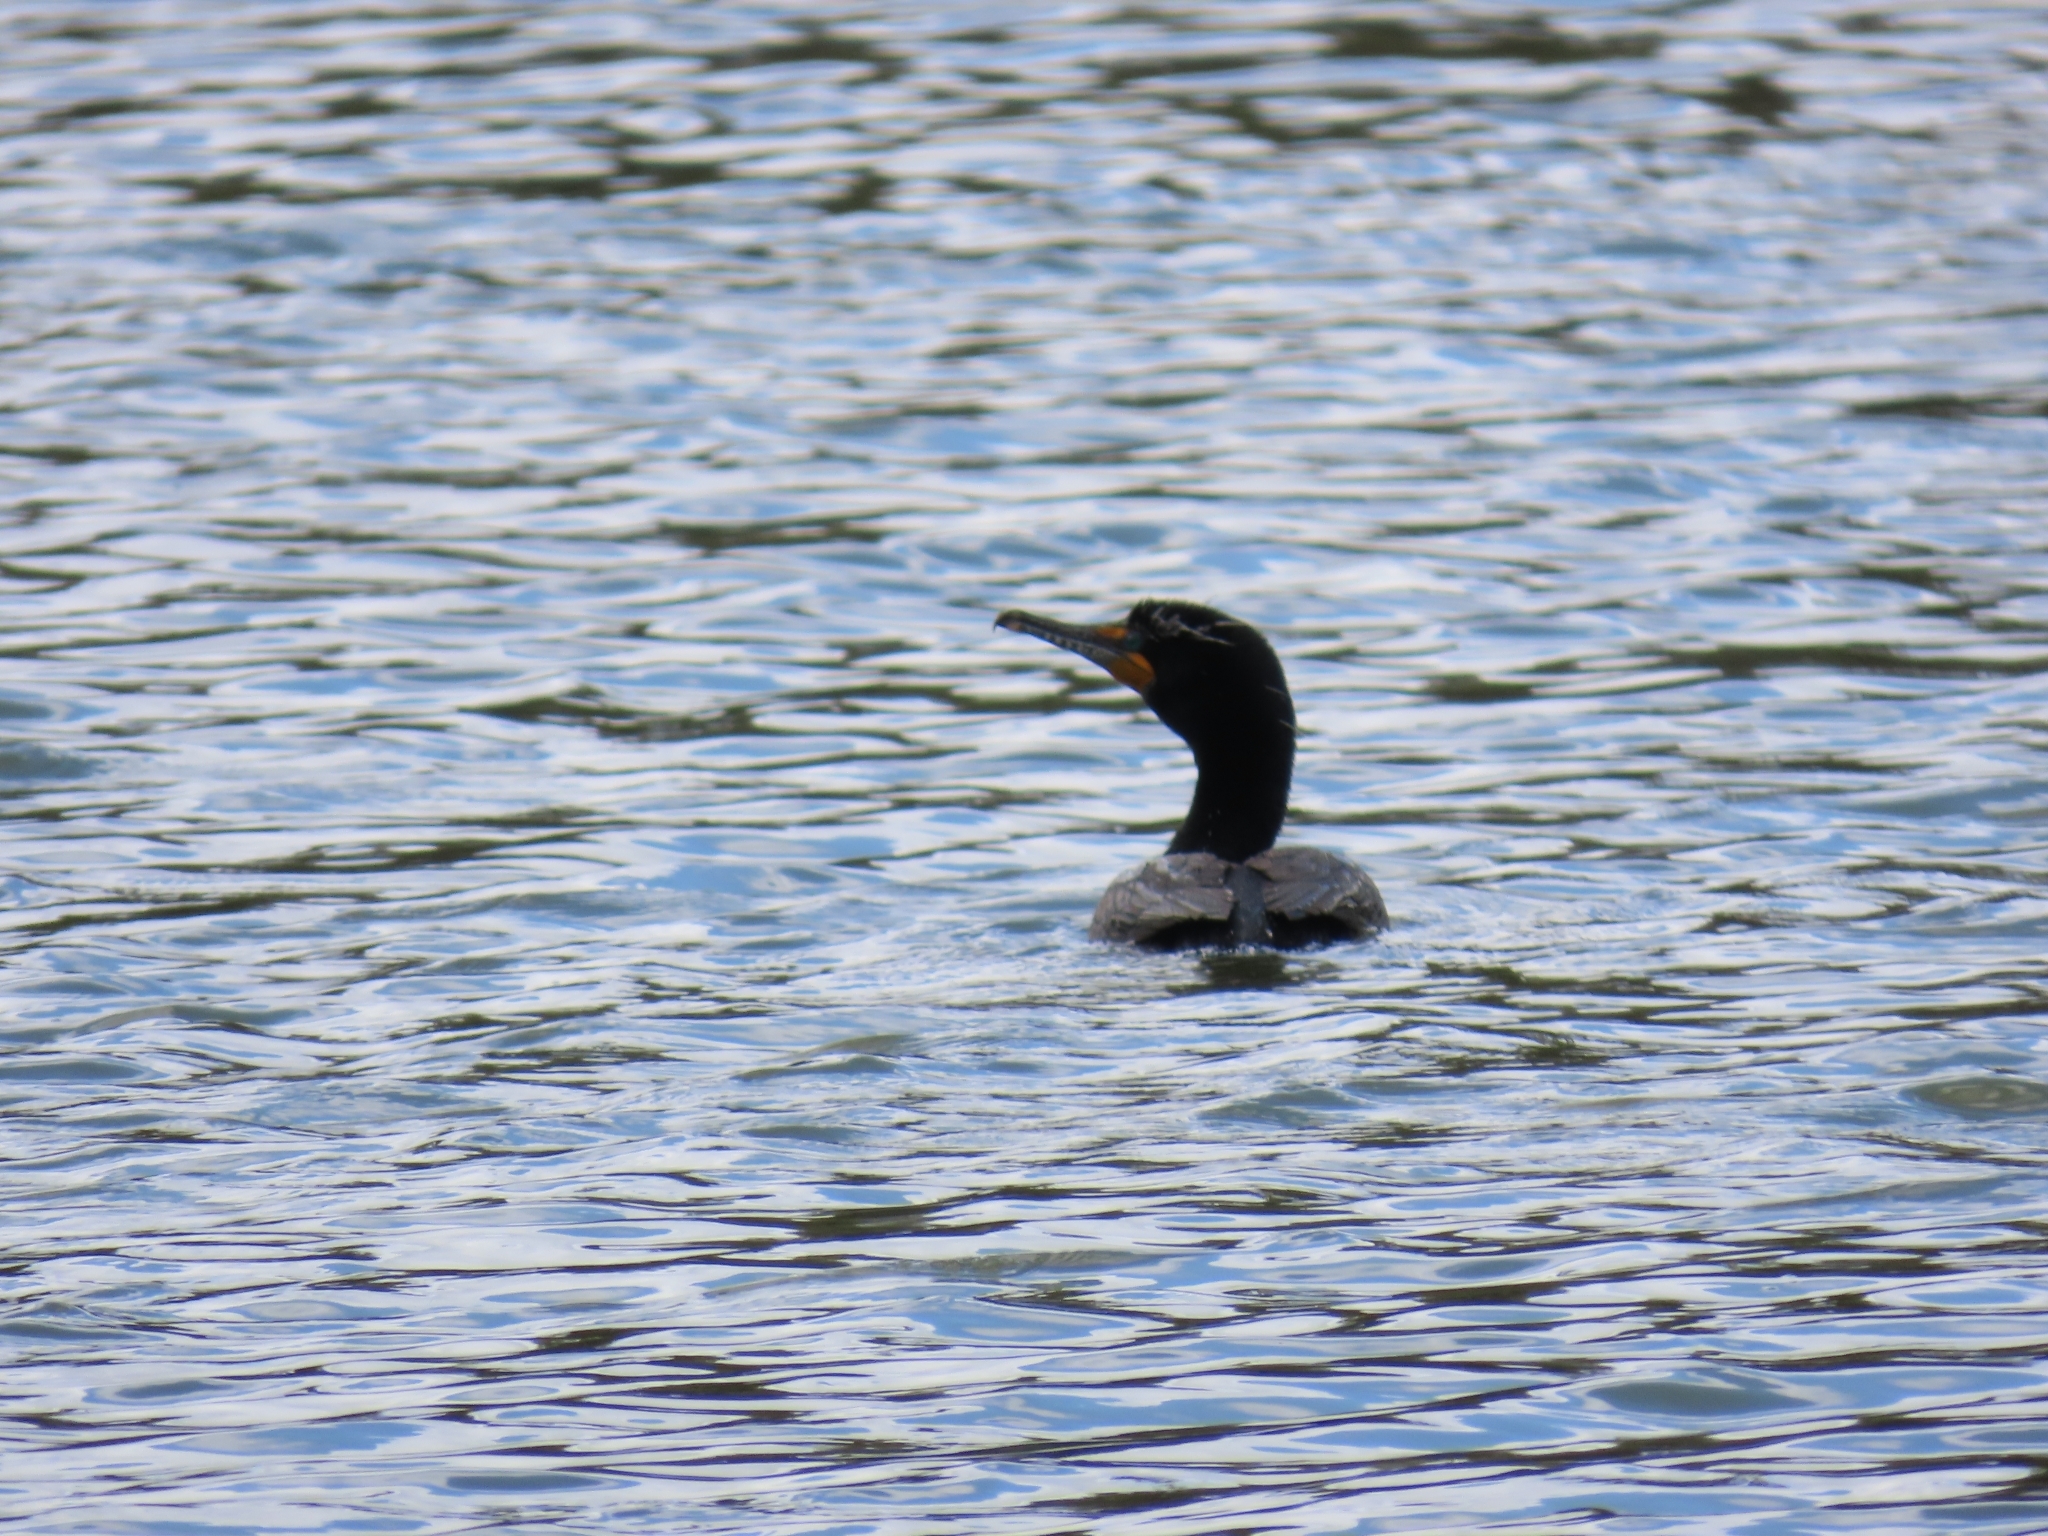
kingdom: Animalia
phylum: Chordata
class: Aves
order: Suliformes
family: Phalacrocoracidae
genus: Phalacrocorax
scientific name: Phalacrocorax auritus
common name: Double-crested cormorant
